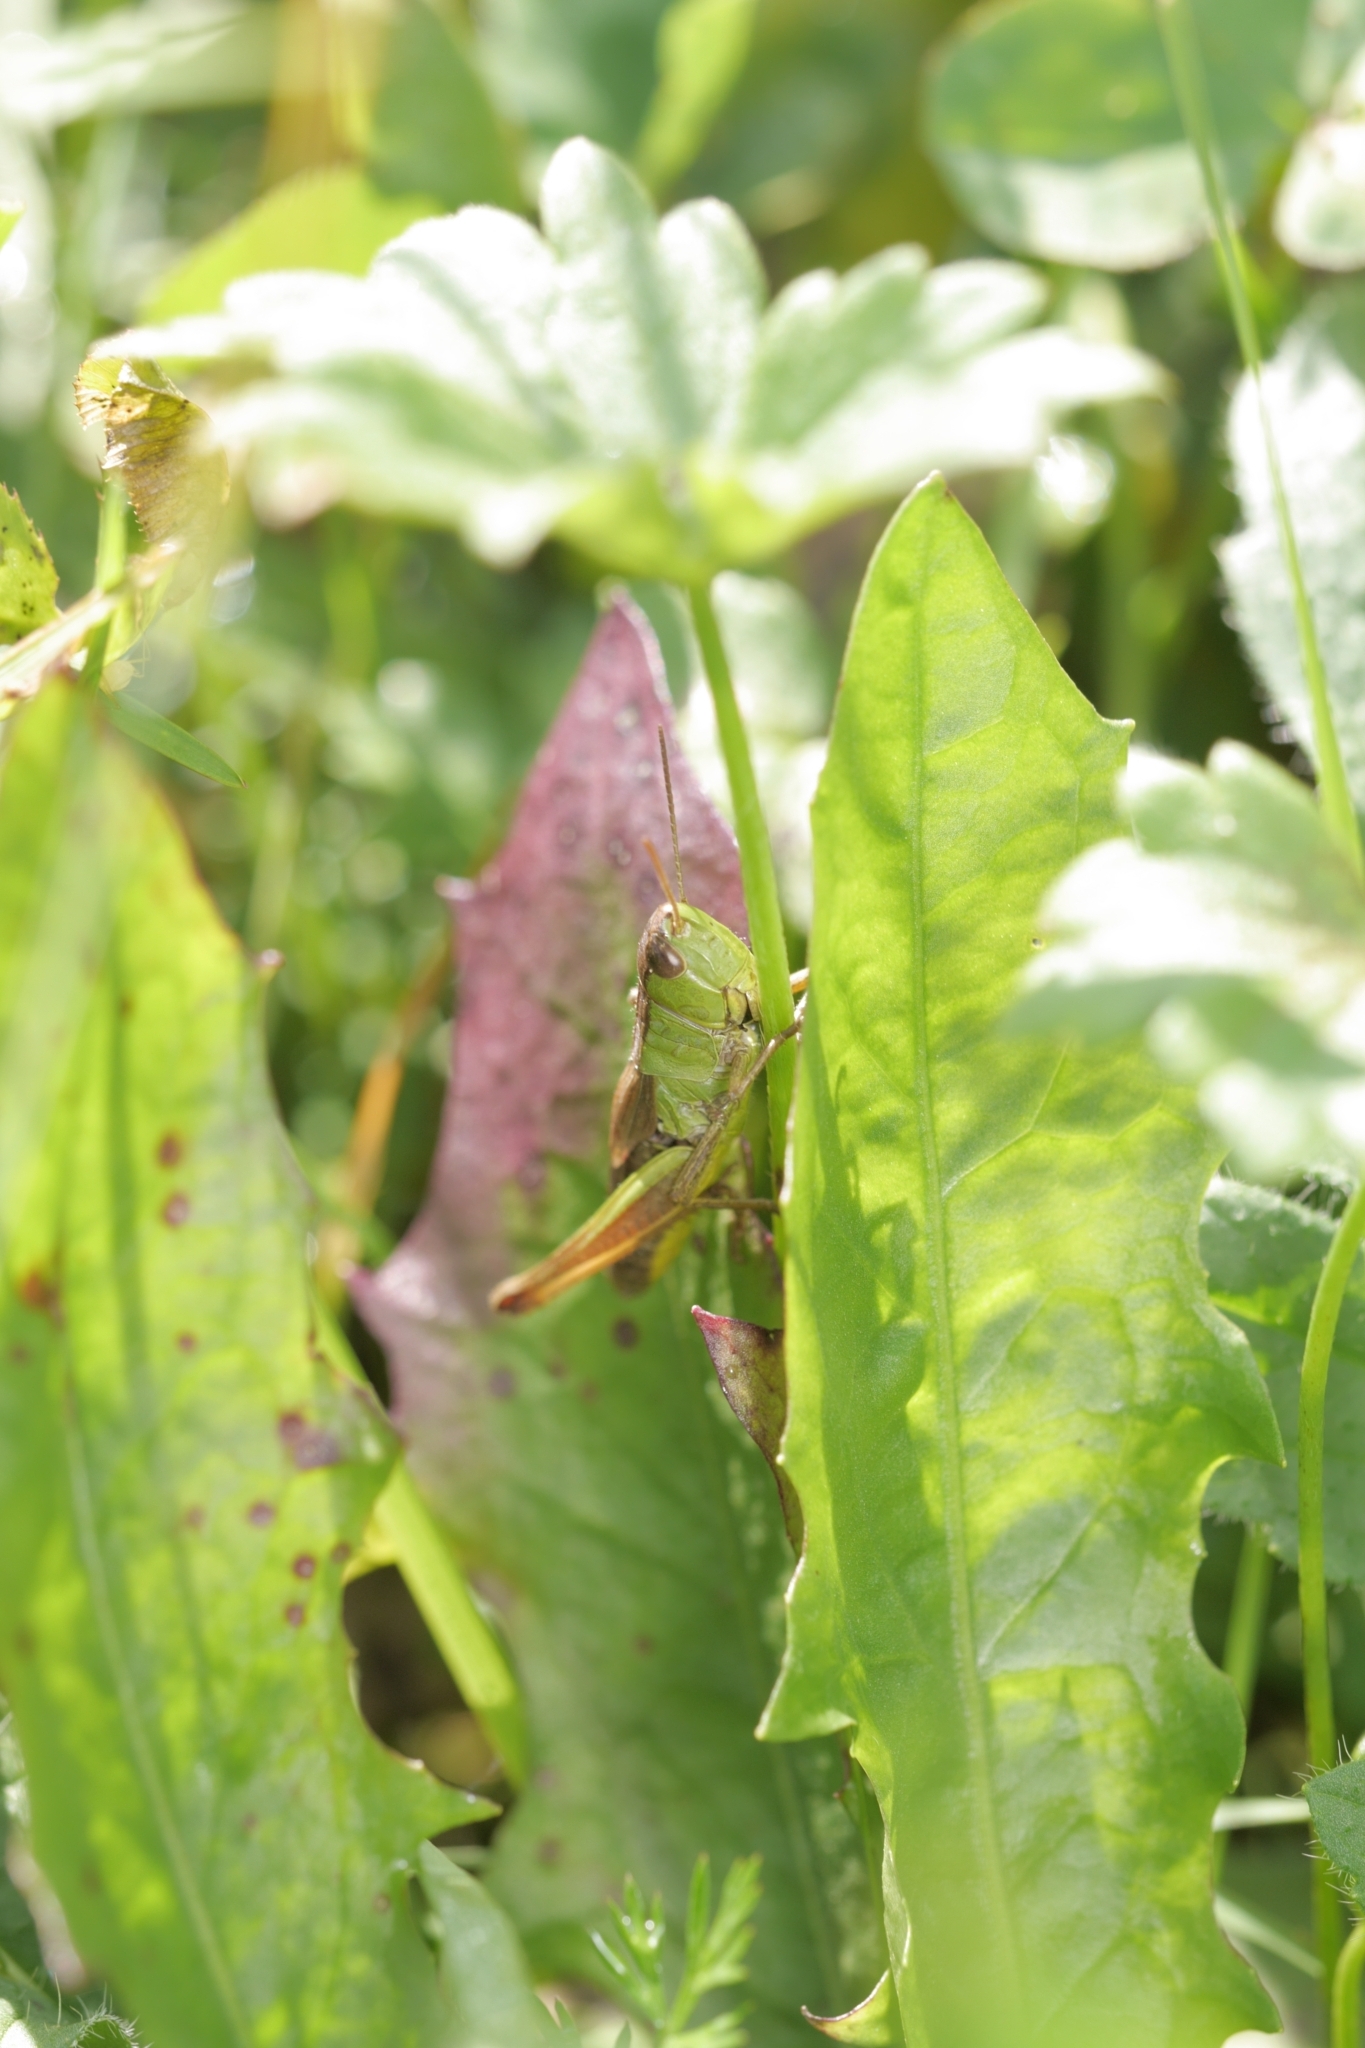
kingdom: Animalia
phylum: Arthropoda
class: Insecta
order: Orthoptera
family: Acrididae
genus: Pseudochorthippus
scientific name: Pseudochorthippus parallelus
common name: Meadow grasshopper
